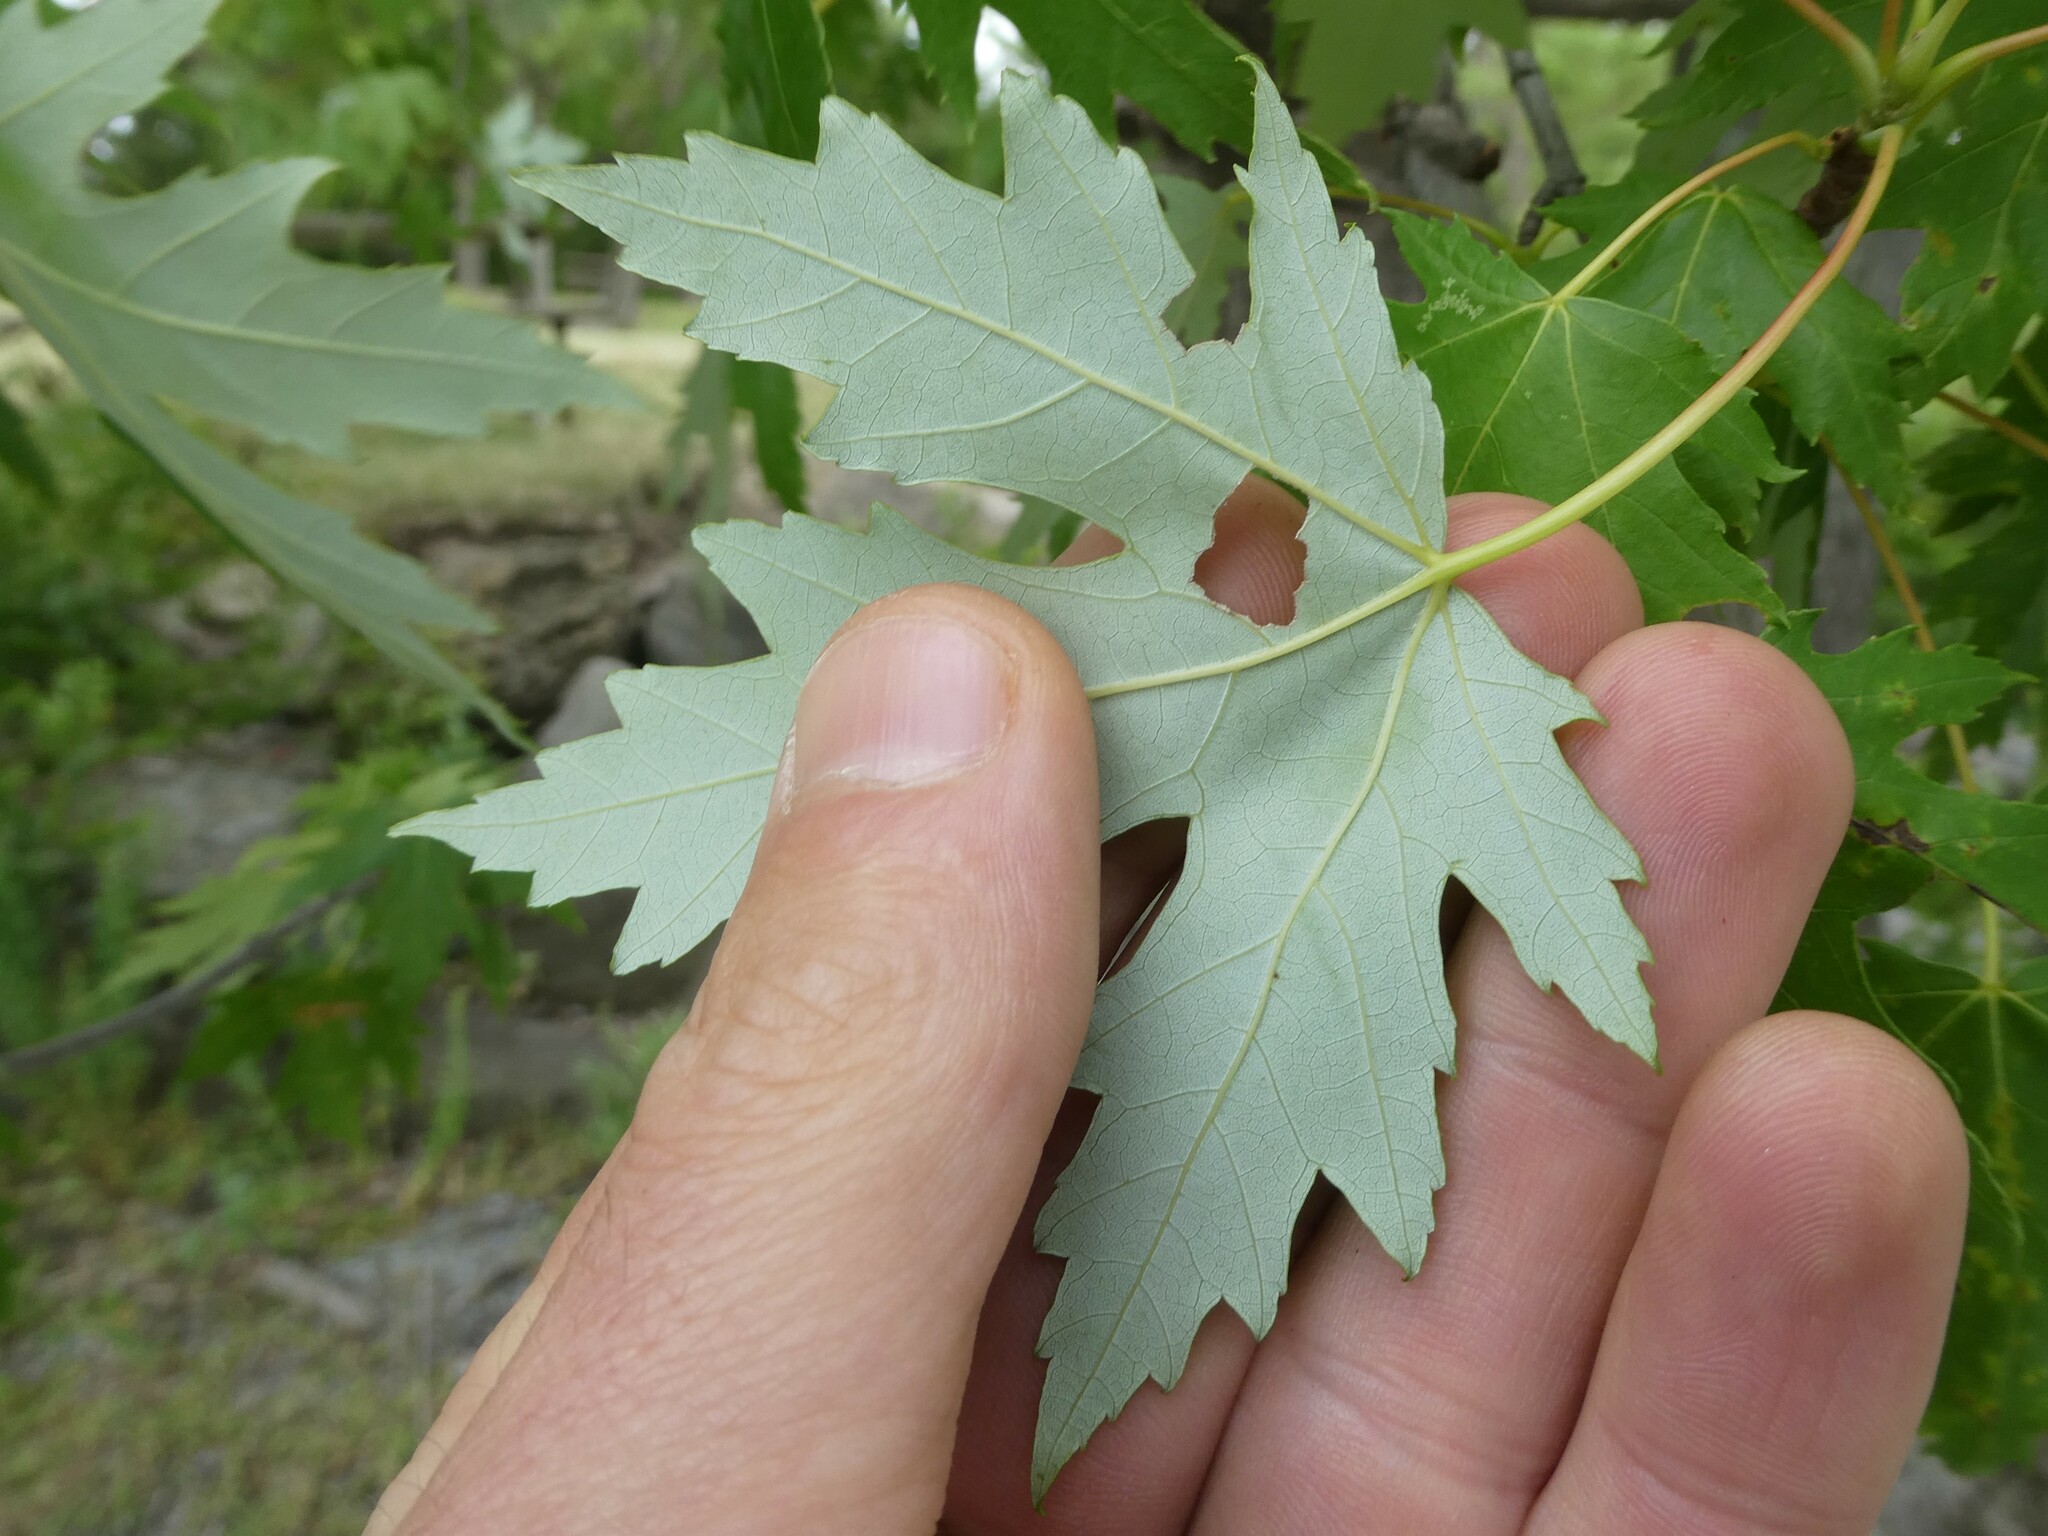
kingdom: Plantae
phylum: Tracheophyta
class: Magnoliopsida
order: Sapindales
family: Sapindaceae
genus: Acer
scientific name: Acer saccharinum
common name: Silver maple
